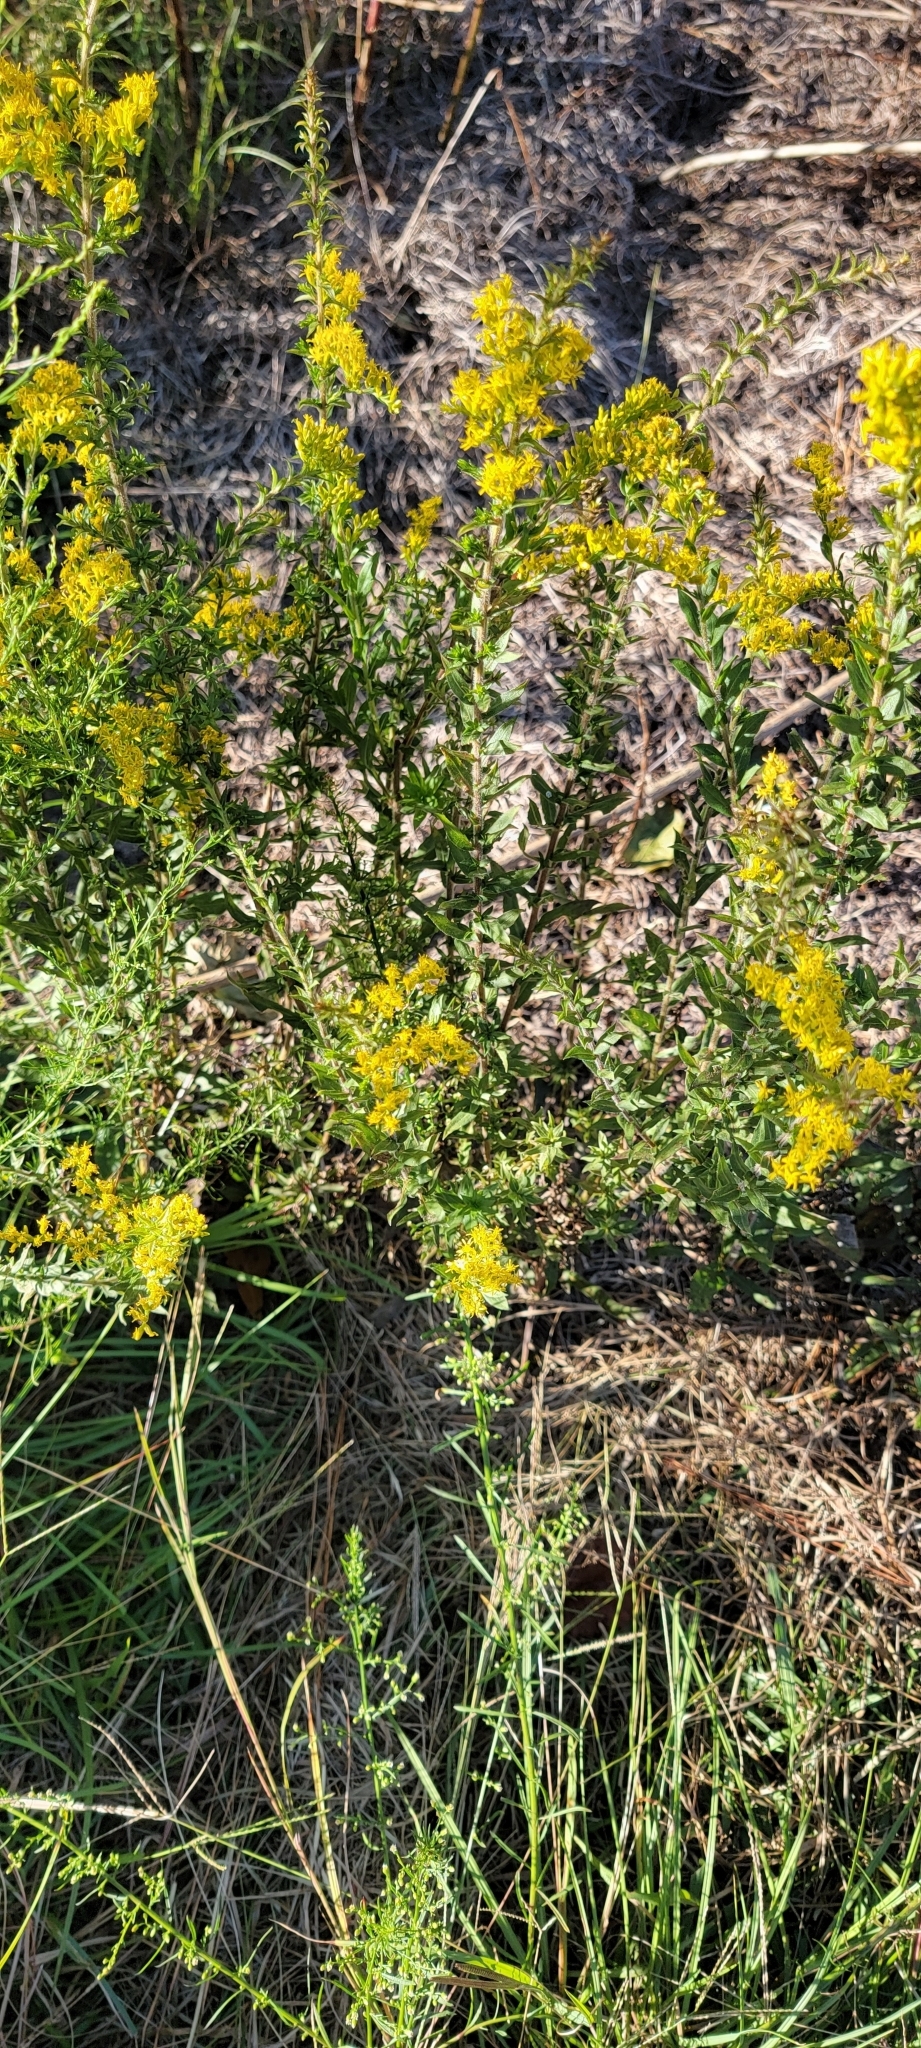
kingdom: Plantae
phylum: Tracheophyta
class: Magnoliopsida
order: Asterales
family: Asteraceae
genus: Solidago
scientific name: Solidago altissima
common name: Late goldenrod
